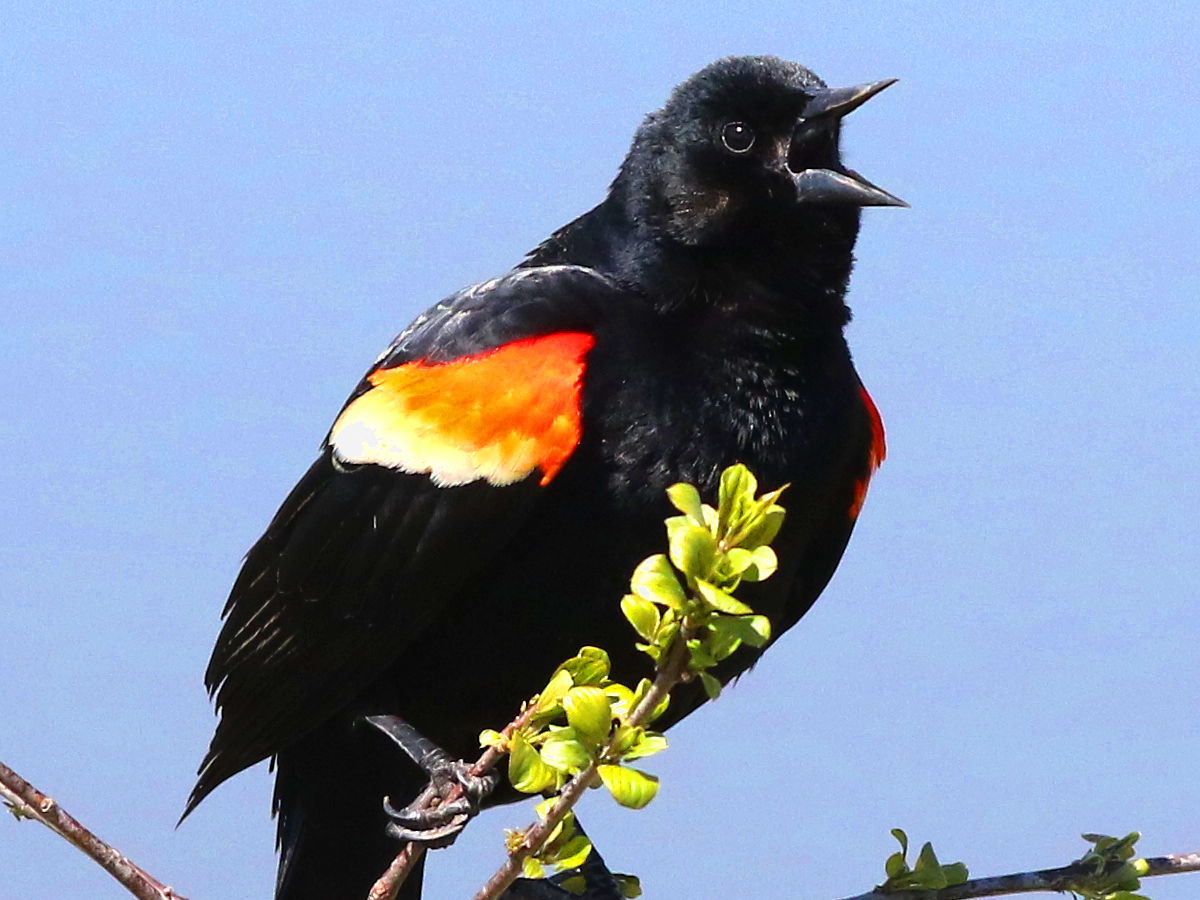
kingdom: Animalia
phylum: Chordata
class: Aves
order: Passeriformes
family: Icteridae
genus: Agelaius
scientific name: Agelaius phoeniceus
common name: Red-winged blackbird
